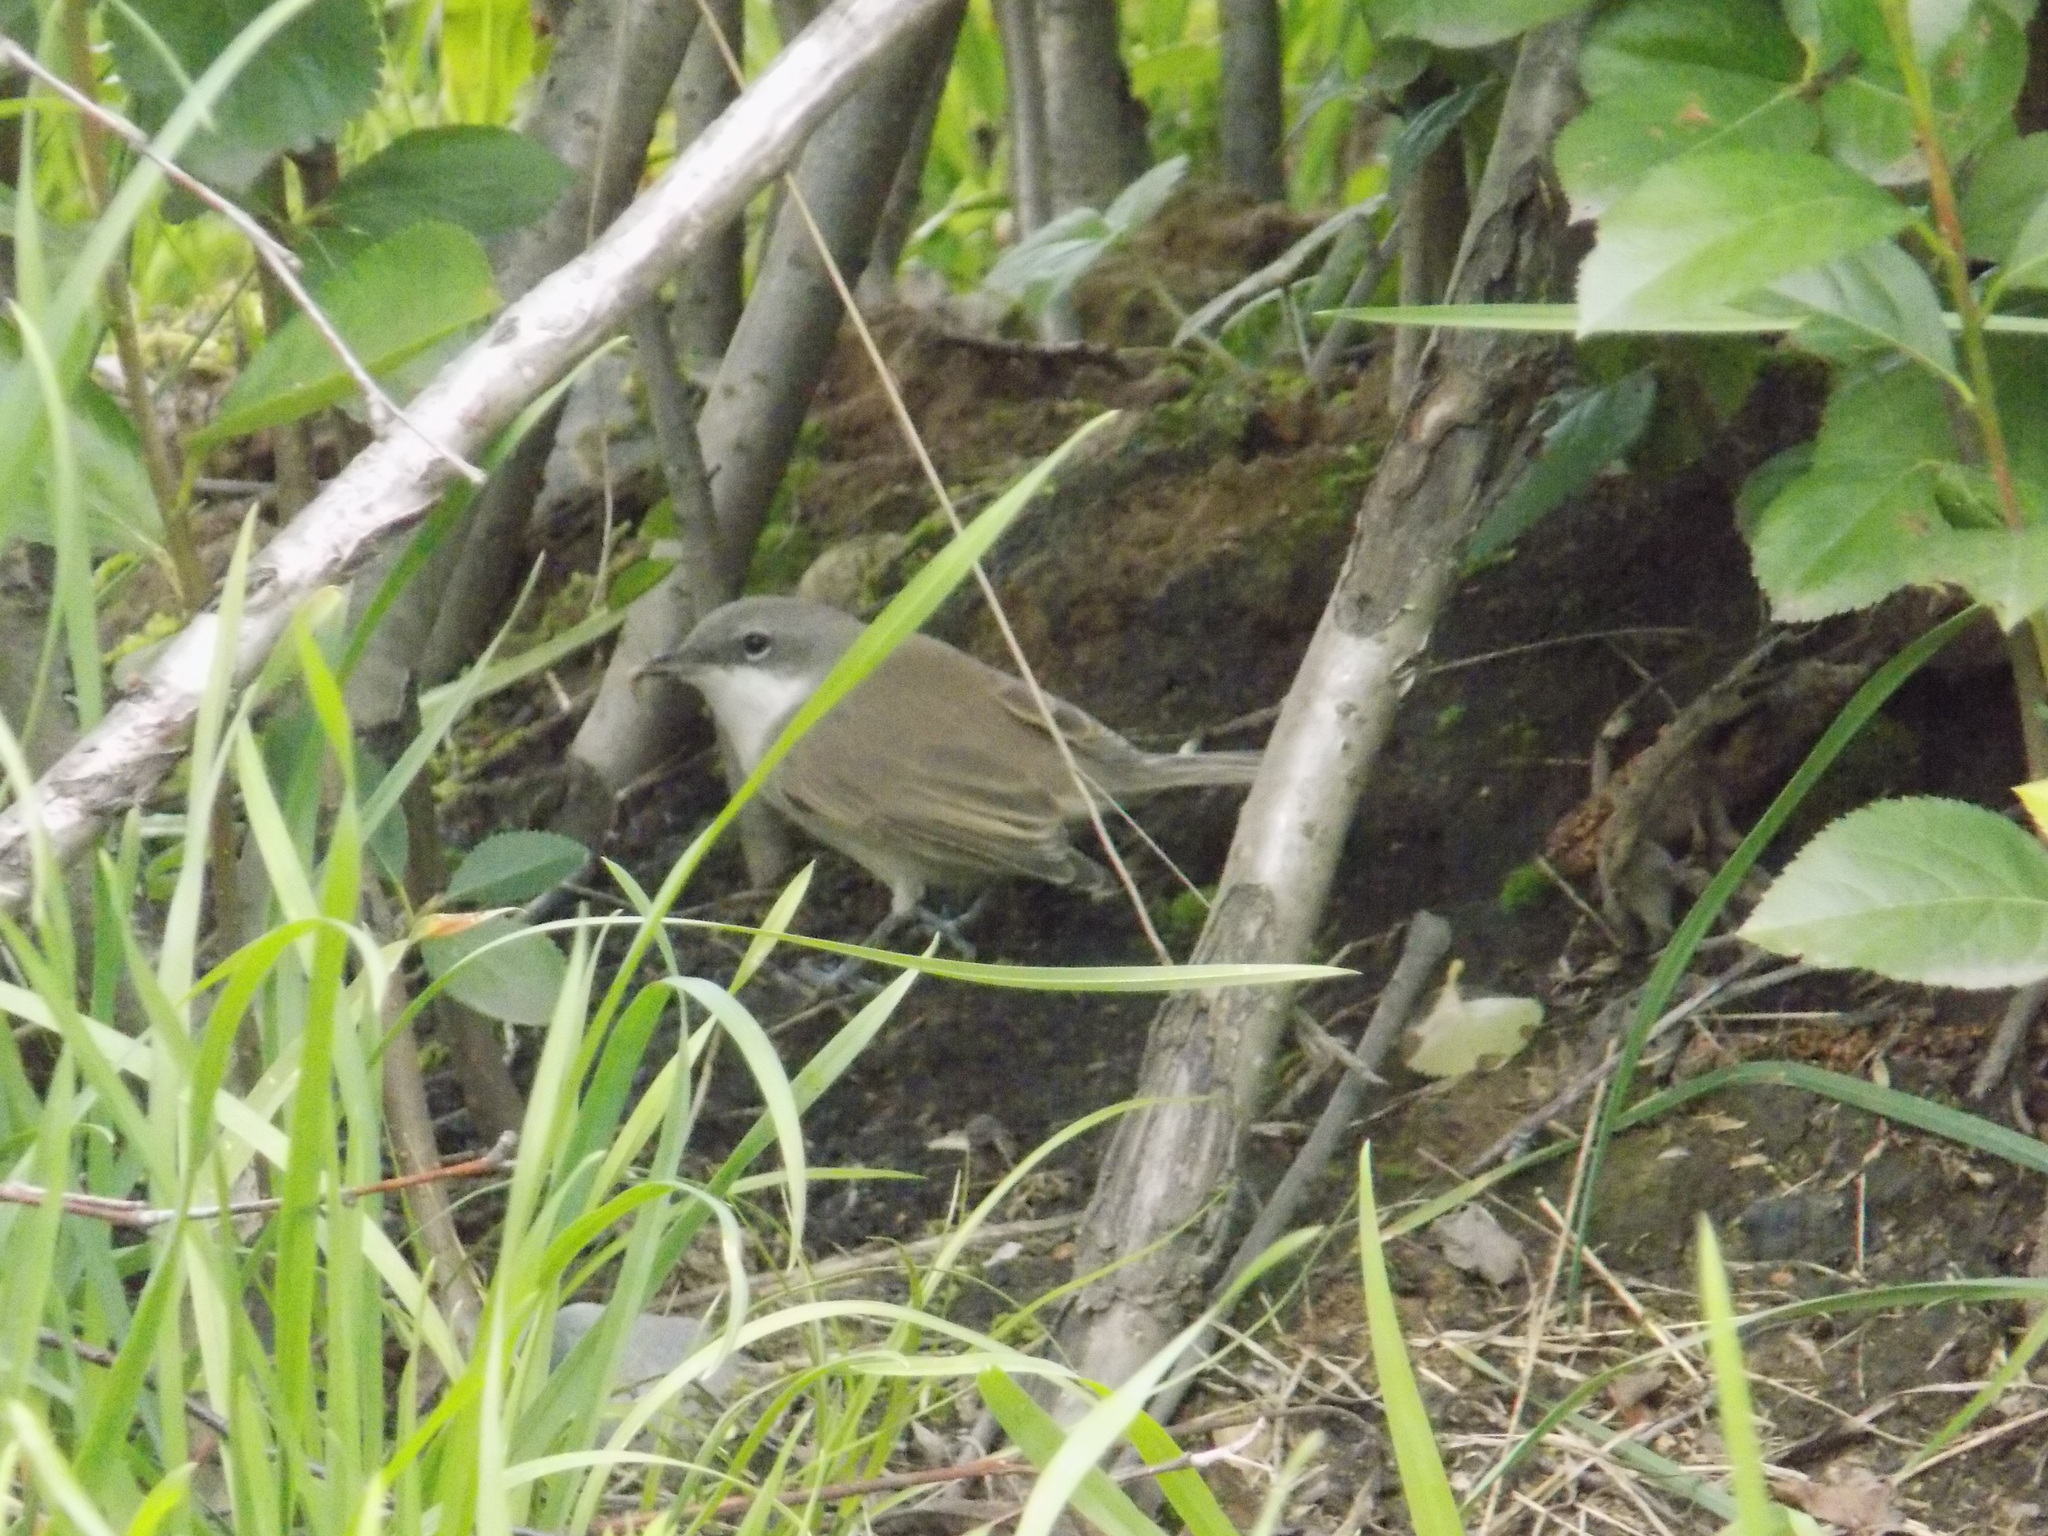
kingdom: Animalia
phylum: Chordata
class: Aves
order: Passeriformes
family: Sylviidae
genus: Sylvia
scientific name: Sylvia curruca
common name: Lesser whitethroat
